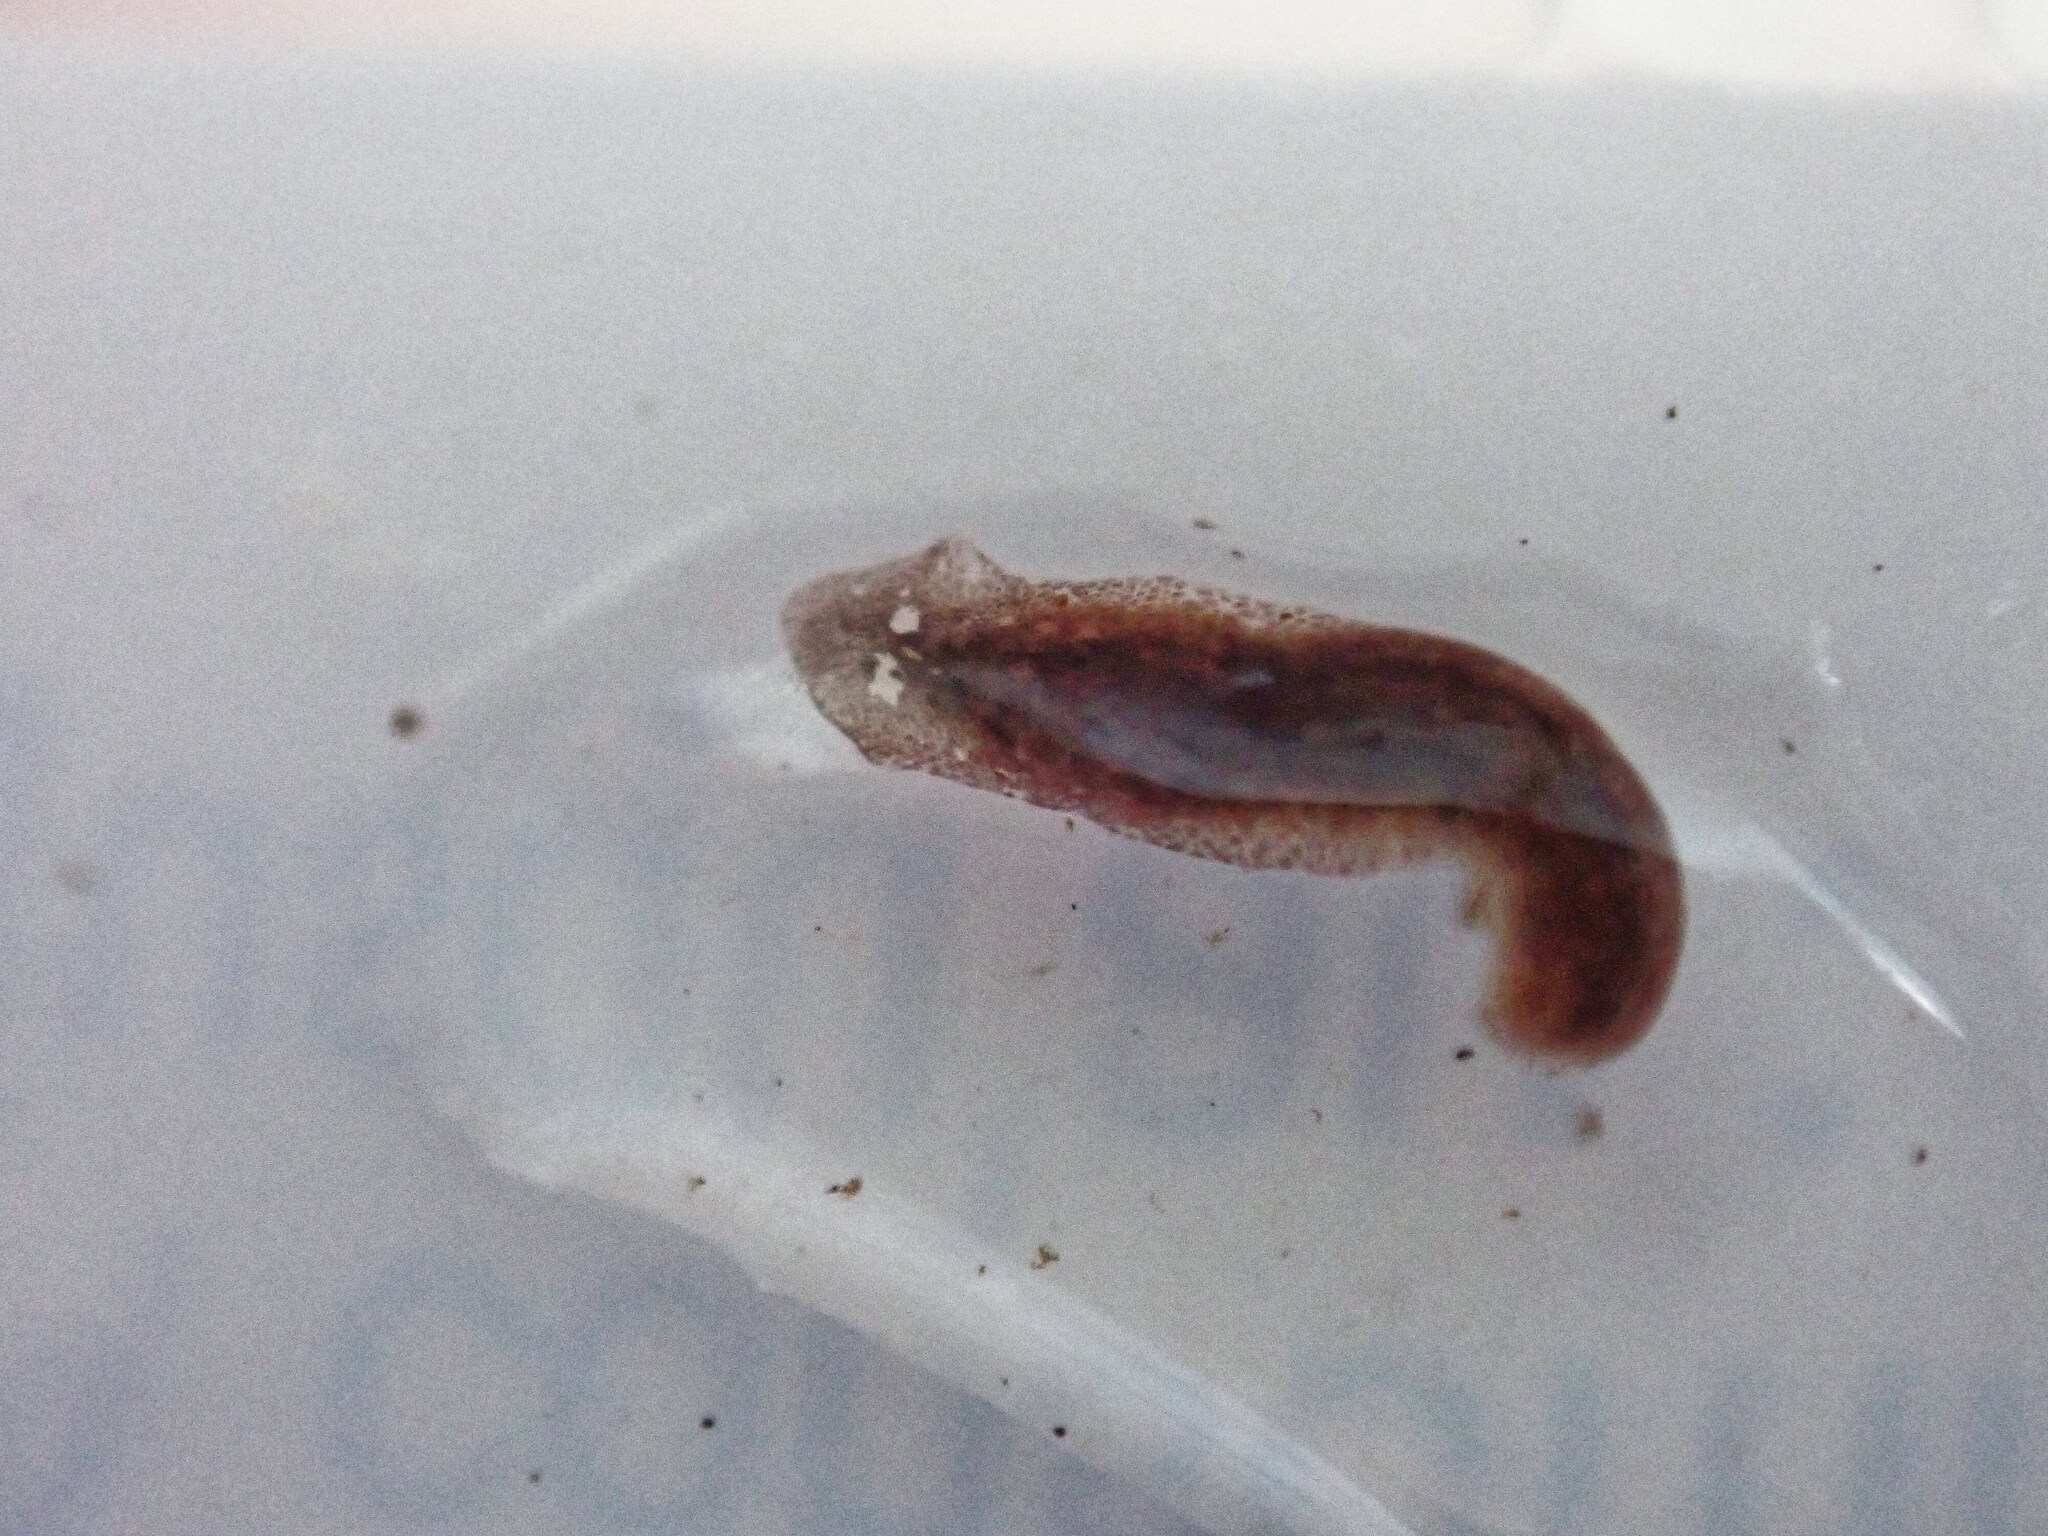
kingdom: Animalia
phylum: Platyhelminthes
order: Tricladida
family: Dugesiidae
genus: Girardia
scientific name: Girardia tigrina
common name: Brown planaria
